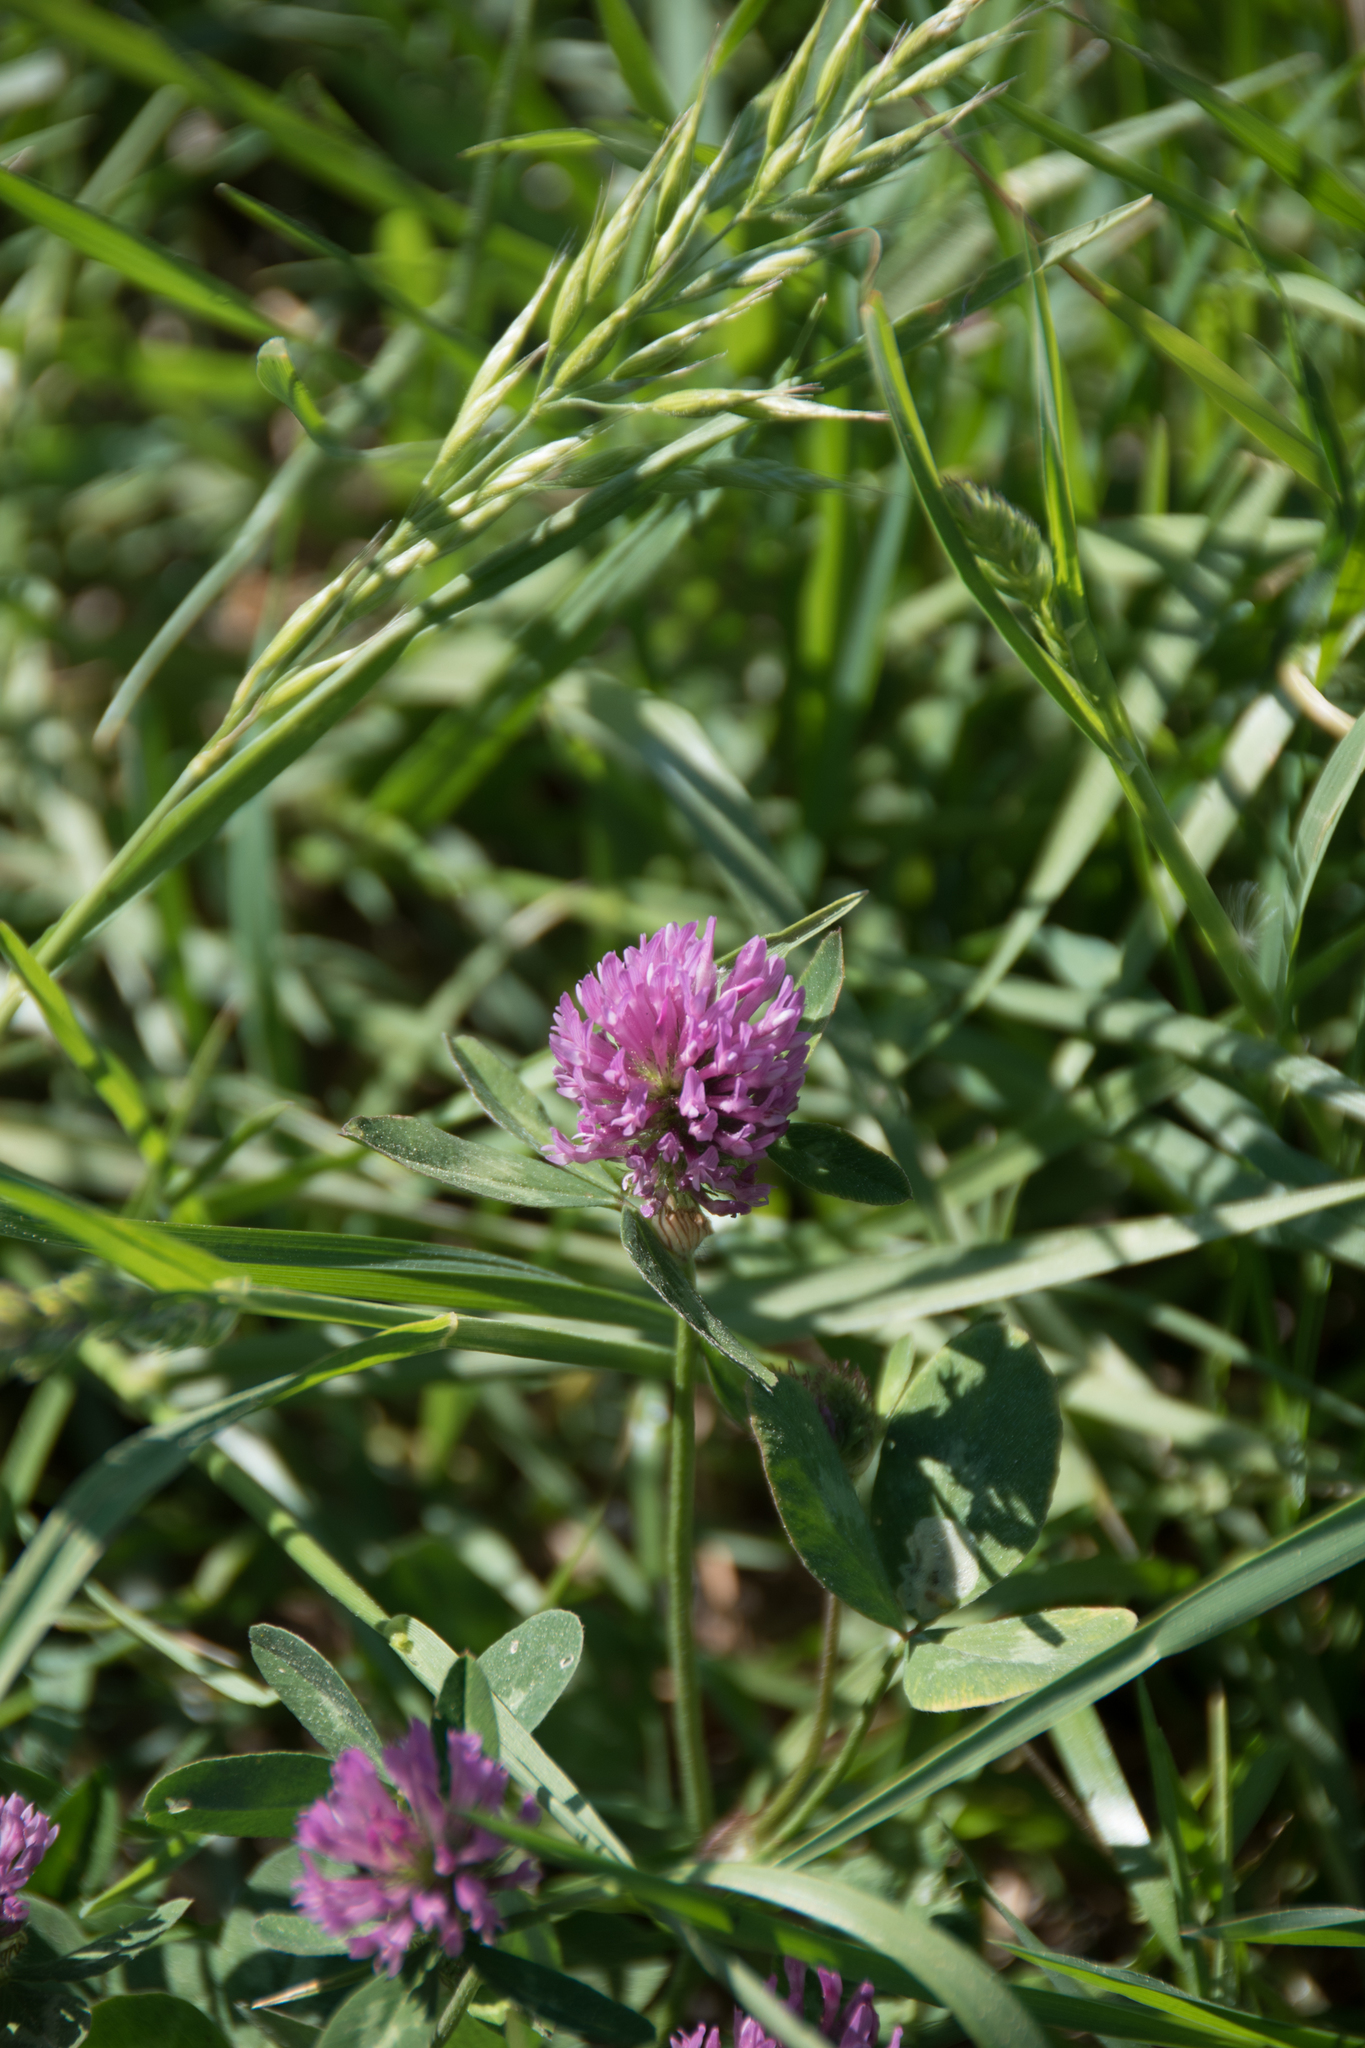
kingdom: Plantae
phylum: Tracheophyta
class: Magnoliopsida
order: Fabales
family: Fabaceae
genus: Trifolium
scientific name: Trifolium pratense
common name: Red clover
